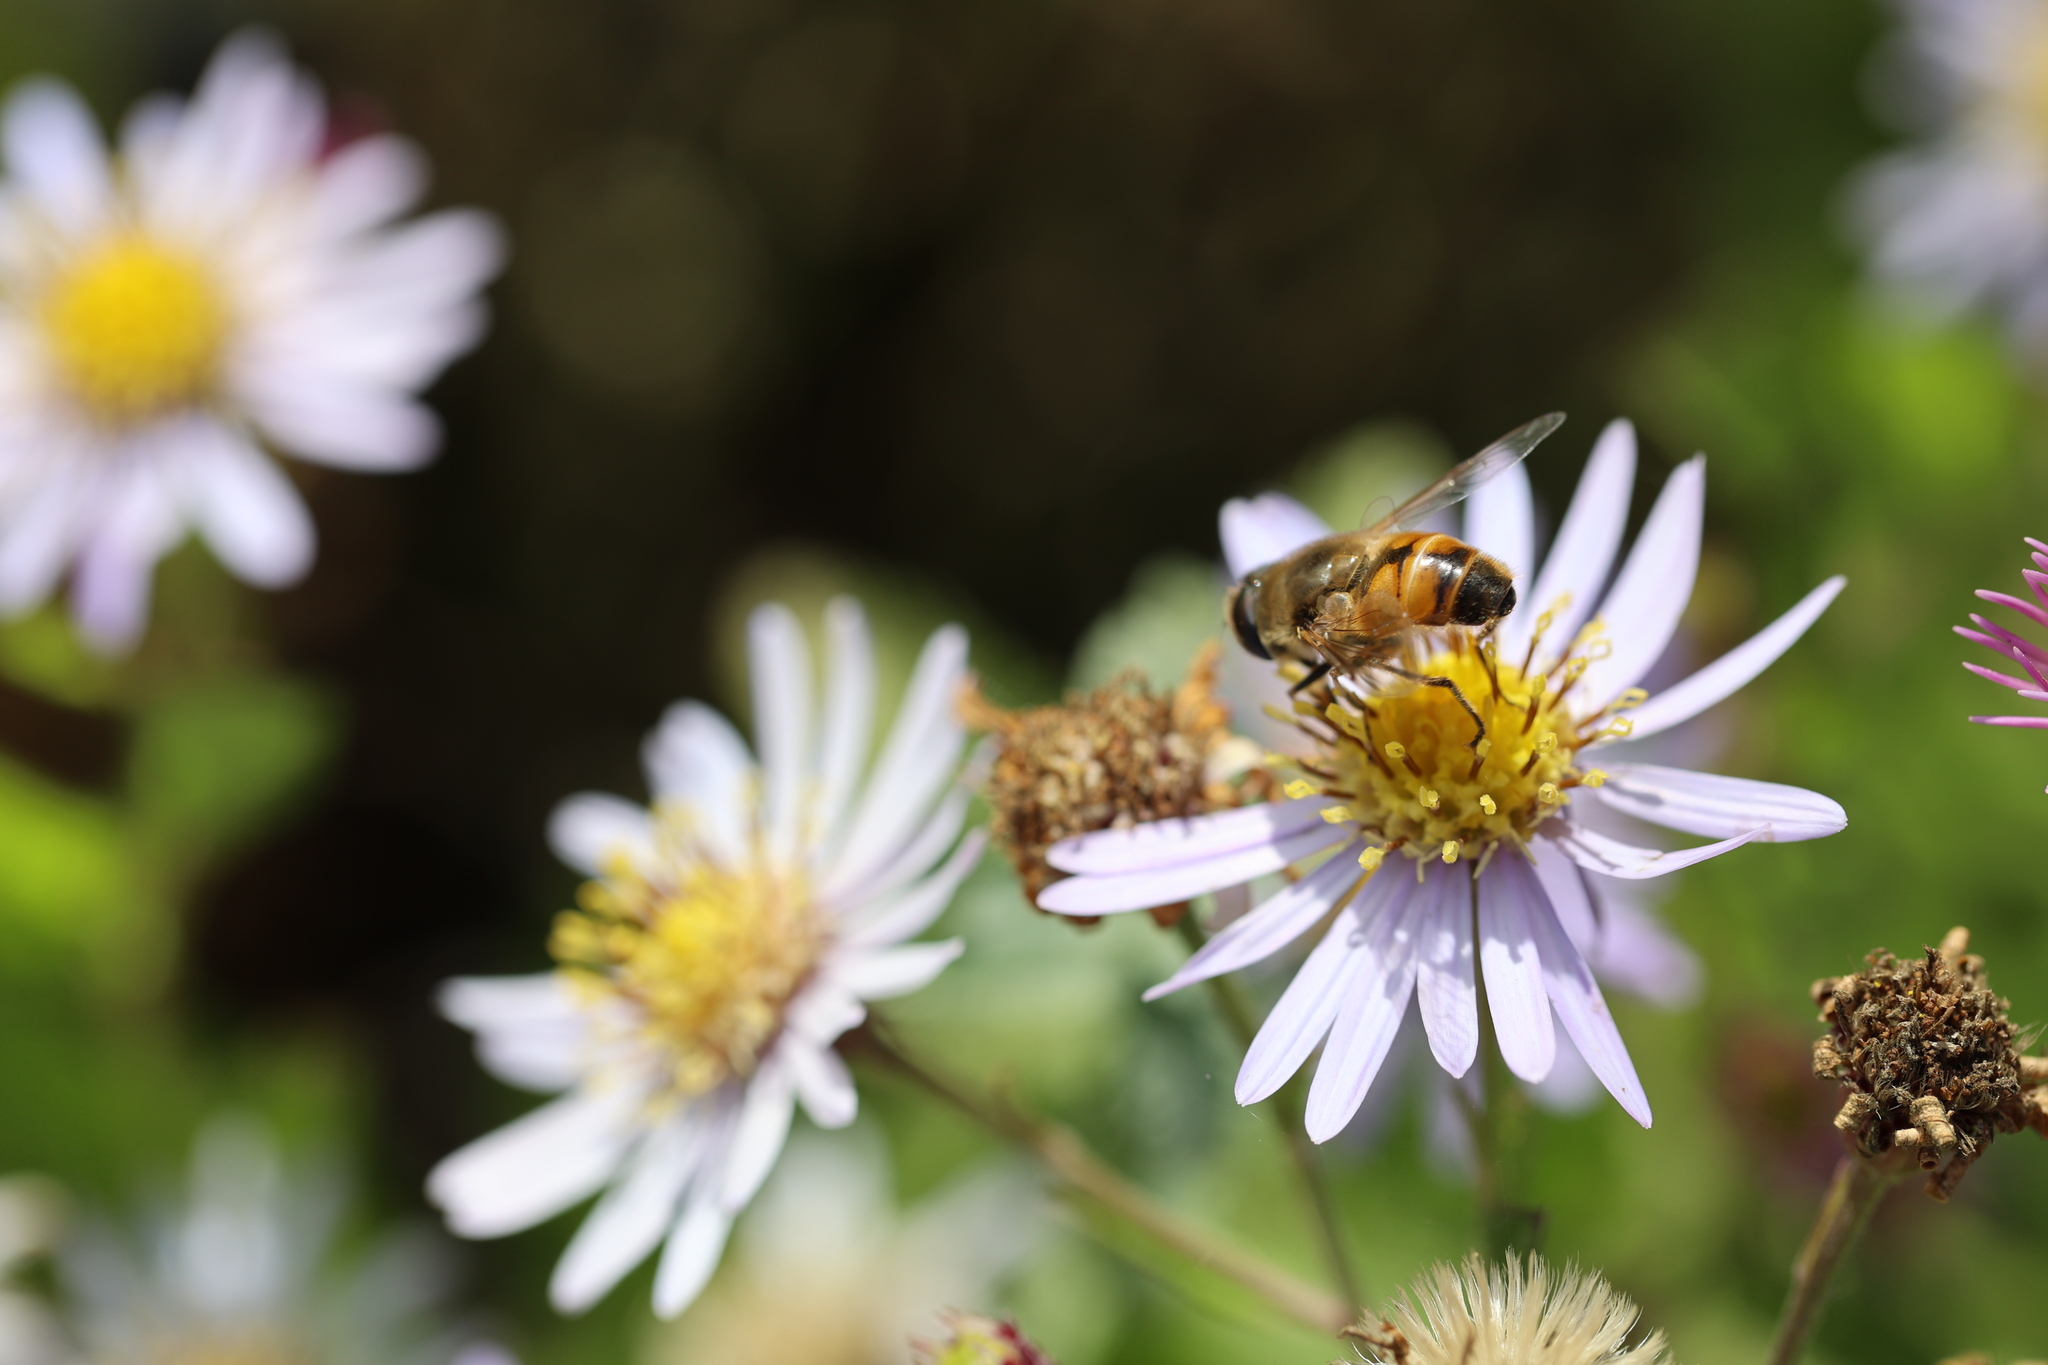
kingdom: Animalia
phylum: Arthropoda
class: Insecta
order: Diptera
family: Syrphidae
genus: Eristalis
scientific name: Eristalis tenax
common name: Drone fly
